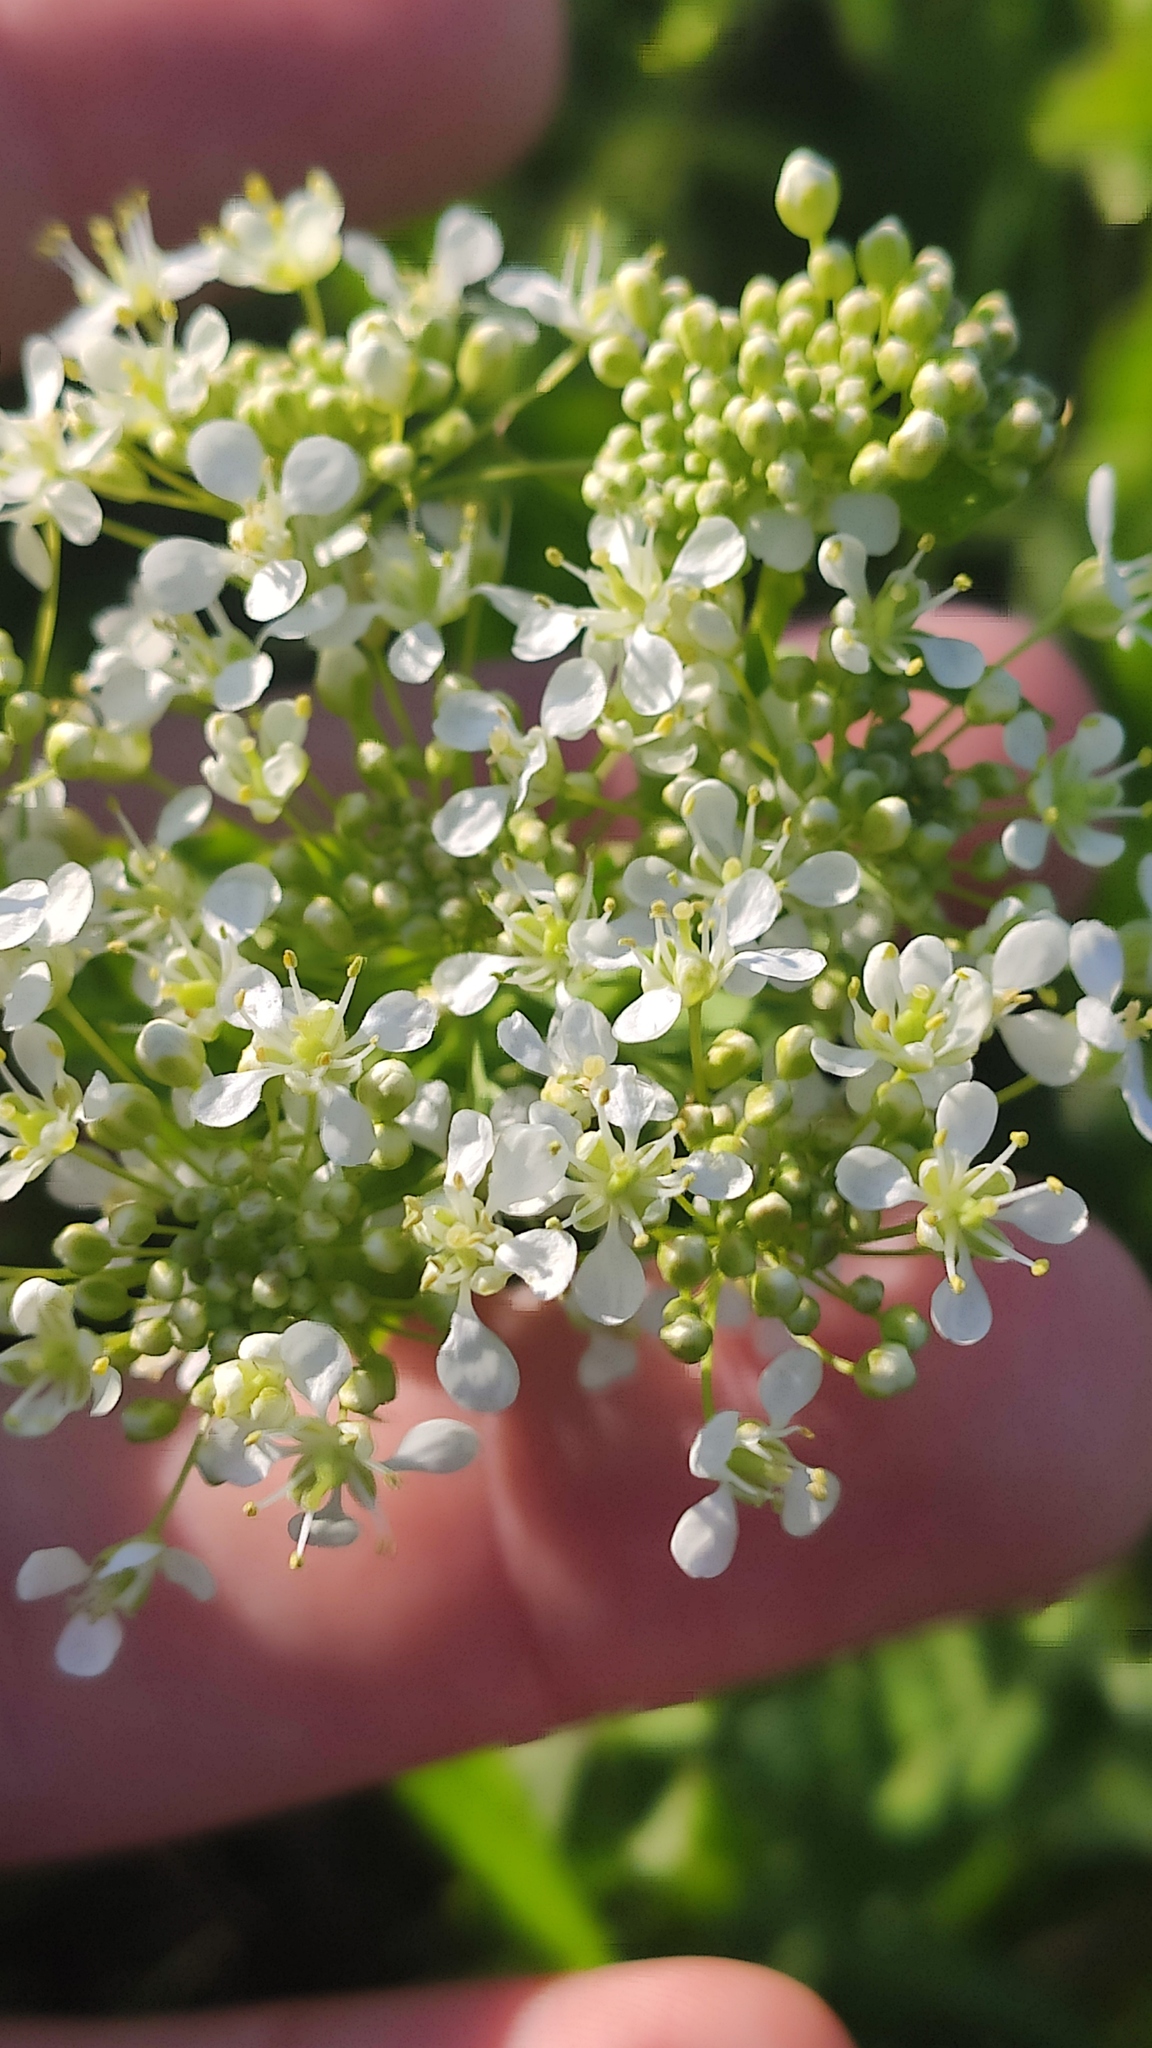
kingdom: Plantae
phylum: Tracheophyta
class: Magnoliopsida
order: Brassicales
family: Brassicaceae
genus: Lepidium
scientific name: Lepidium draba
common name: Hoary cress
